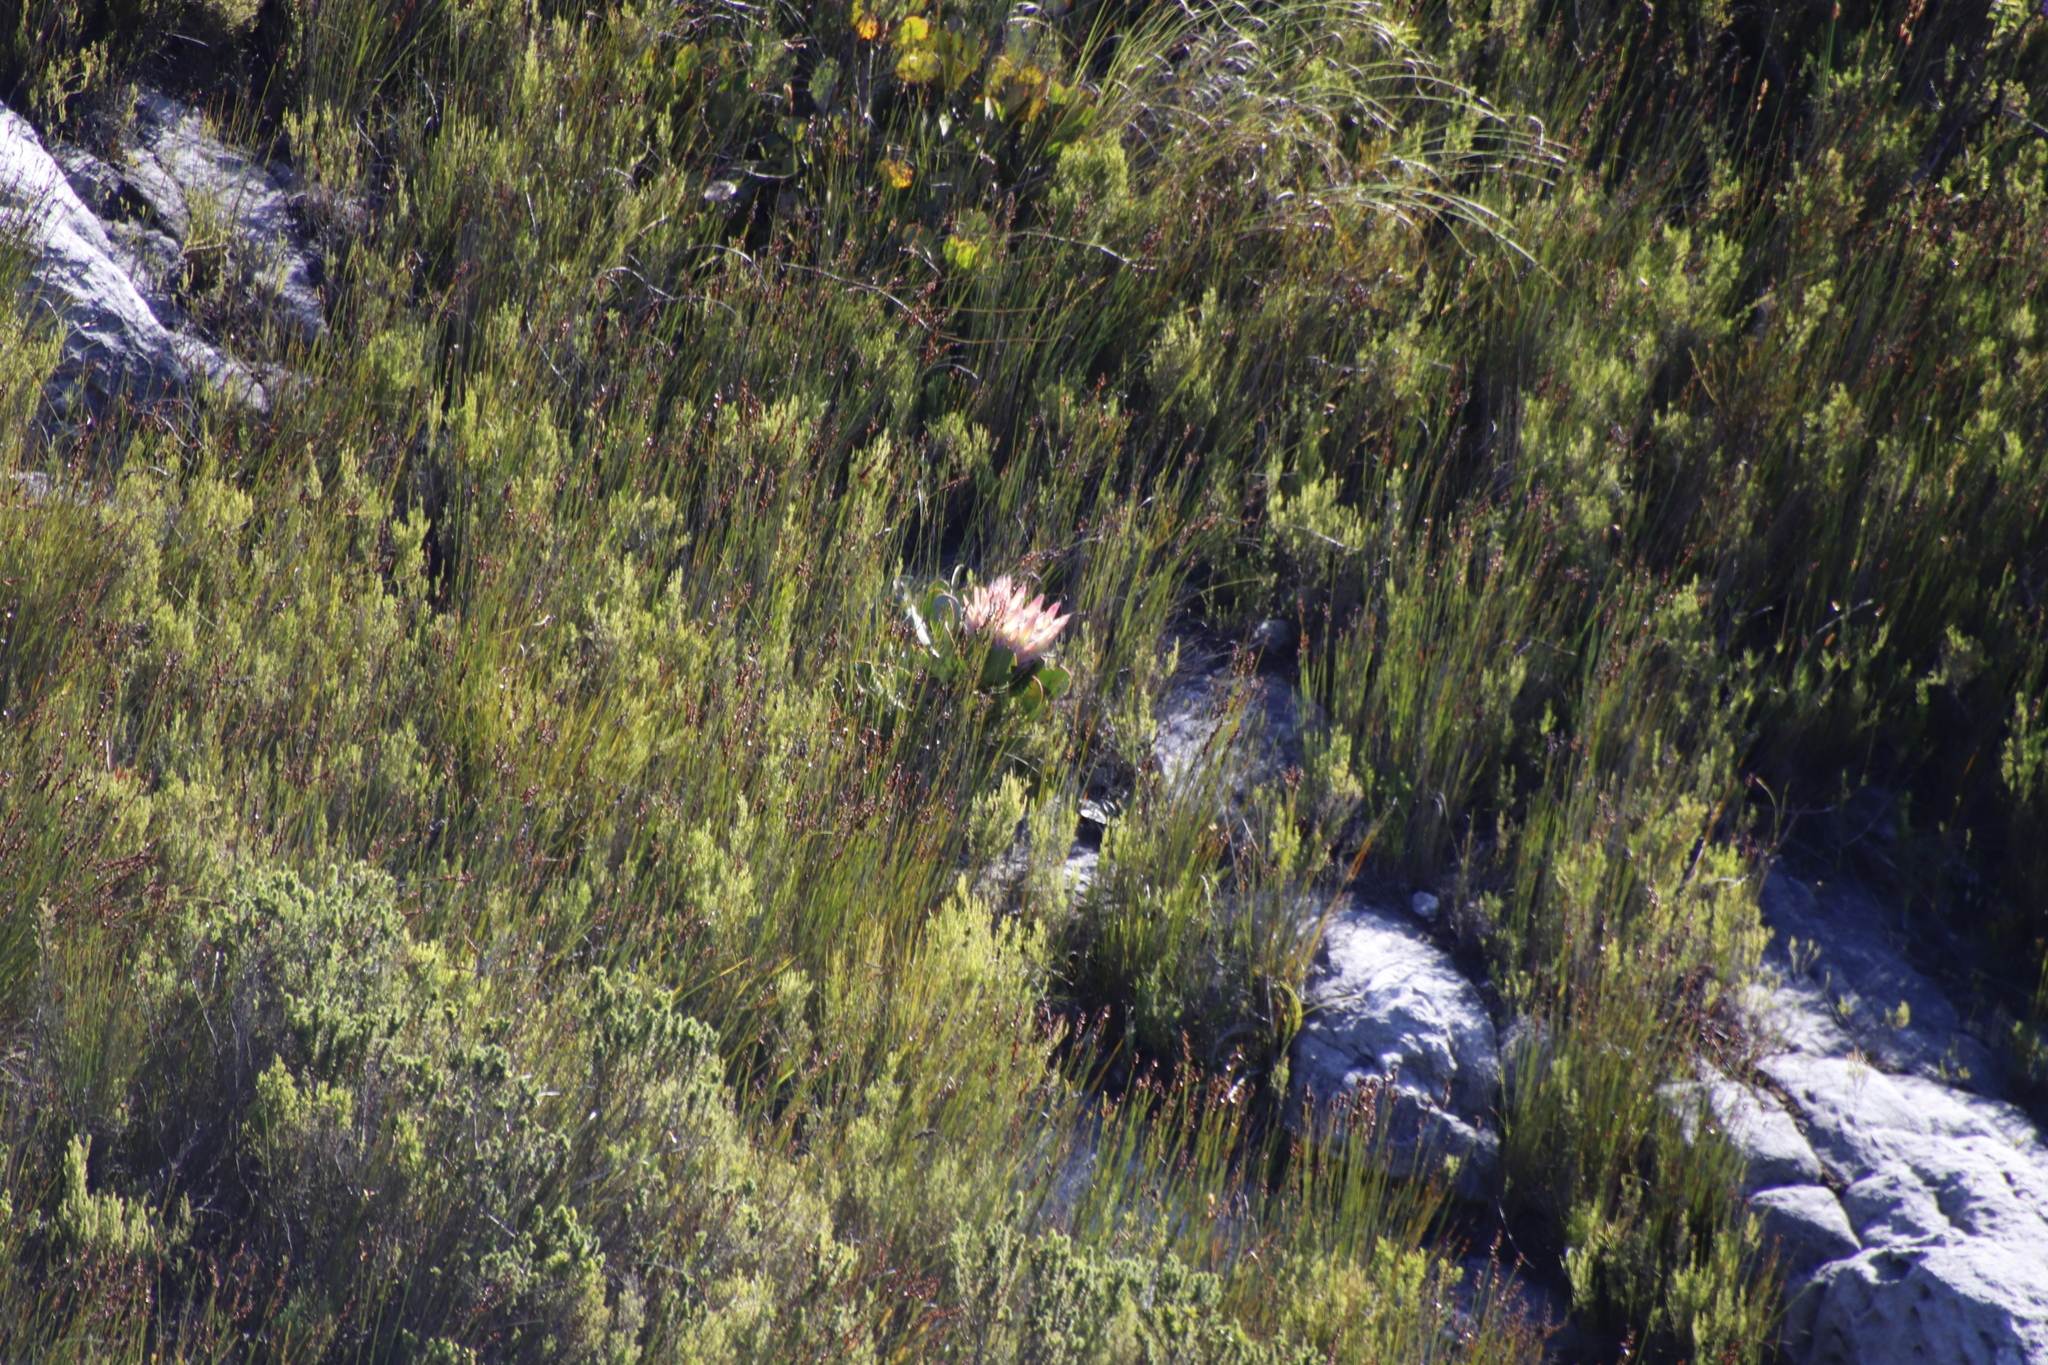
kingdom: Plantae
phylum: Tracheophyta
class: Magnoliopsida
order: Proteales
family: Proteaceae
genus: Protea
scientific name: Protea cynaroides
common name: King protea
